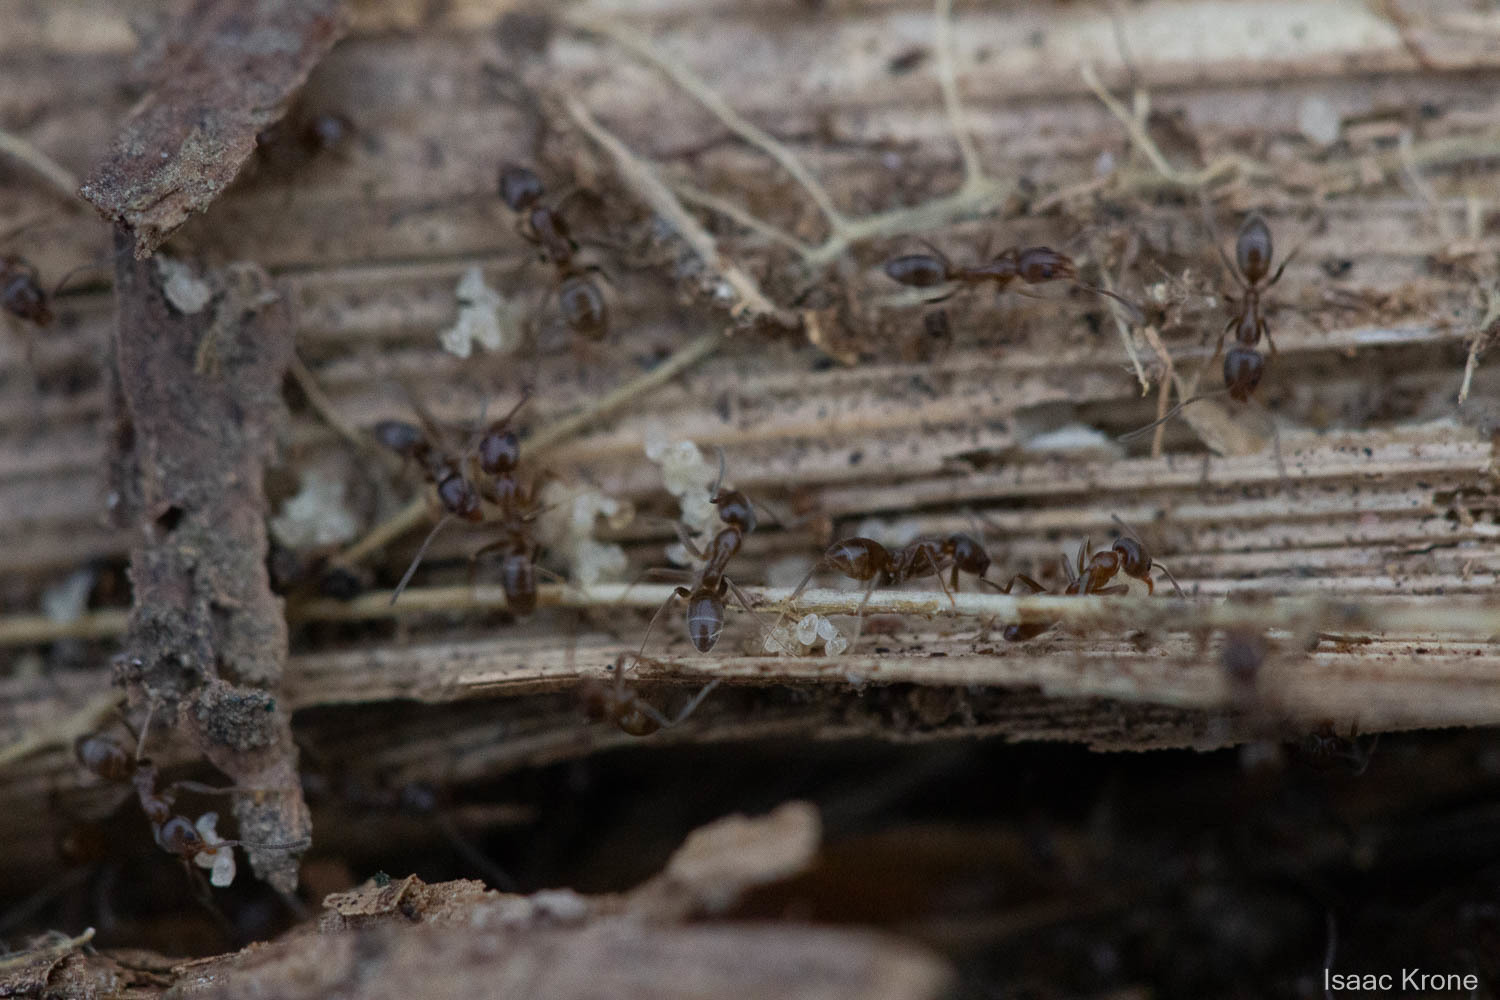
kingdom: Animalia
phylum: Arthropoda
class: Insecta
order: Hymenoptera
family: Formicidae
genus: Linepithema
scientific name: Linepithema humile
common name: Argentine ant
